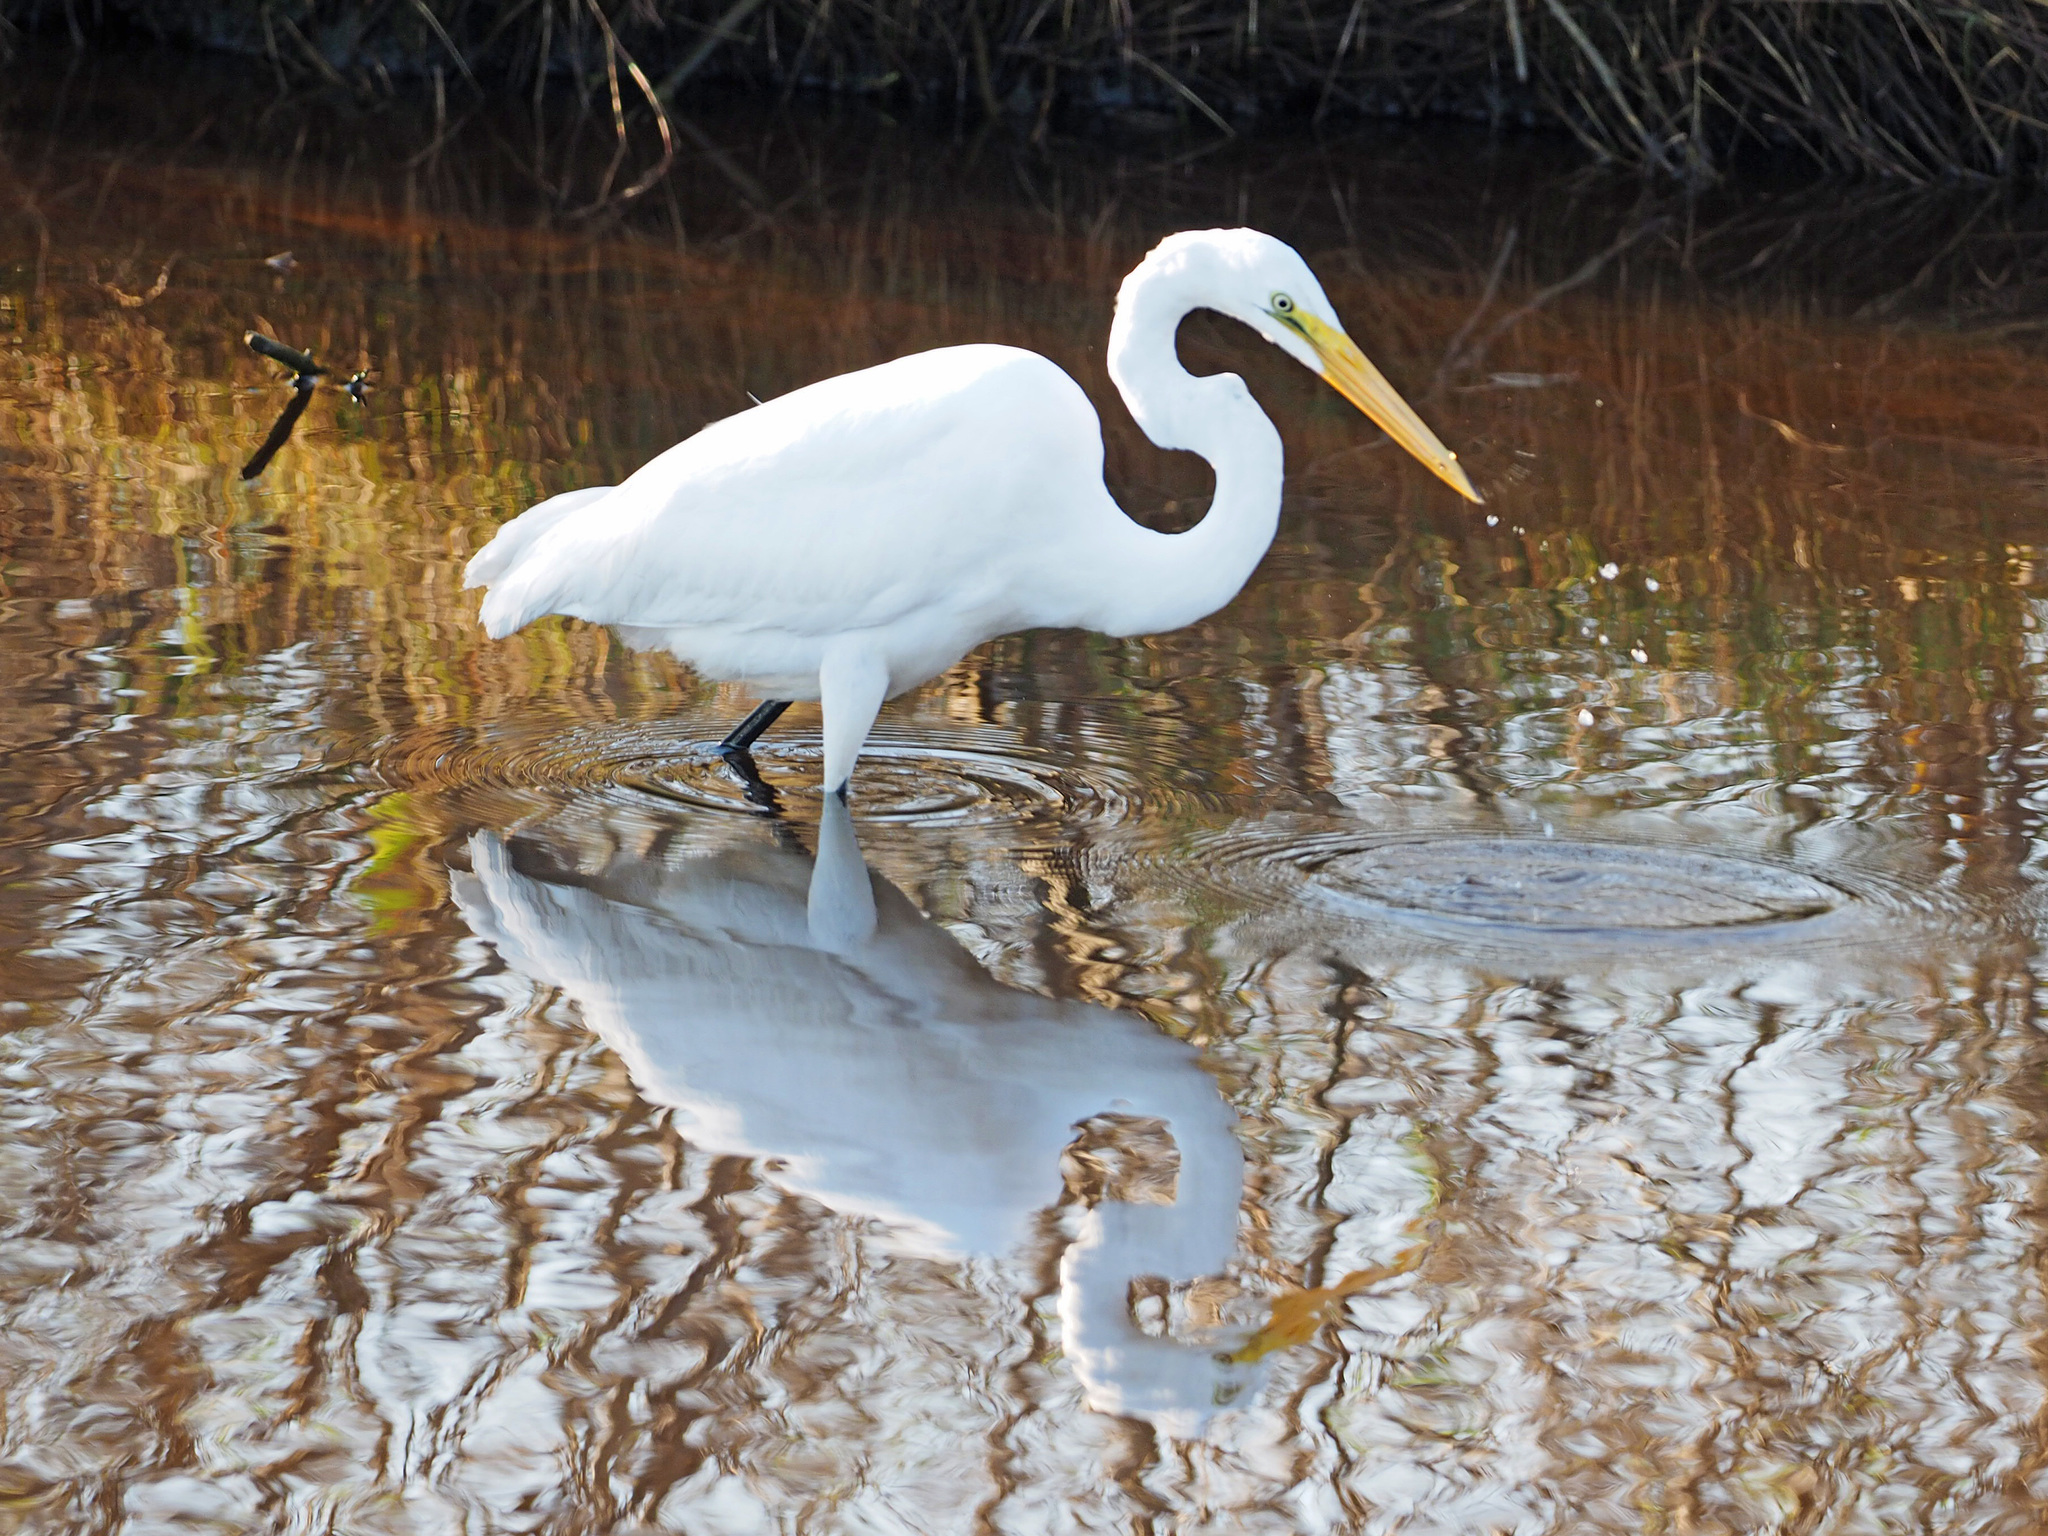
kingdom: Animalia
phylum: Chordata
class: Aves
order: Pelecaniformes
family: Ardeidae
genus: Ardea
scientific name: Ardea alba
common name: Great egret
